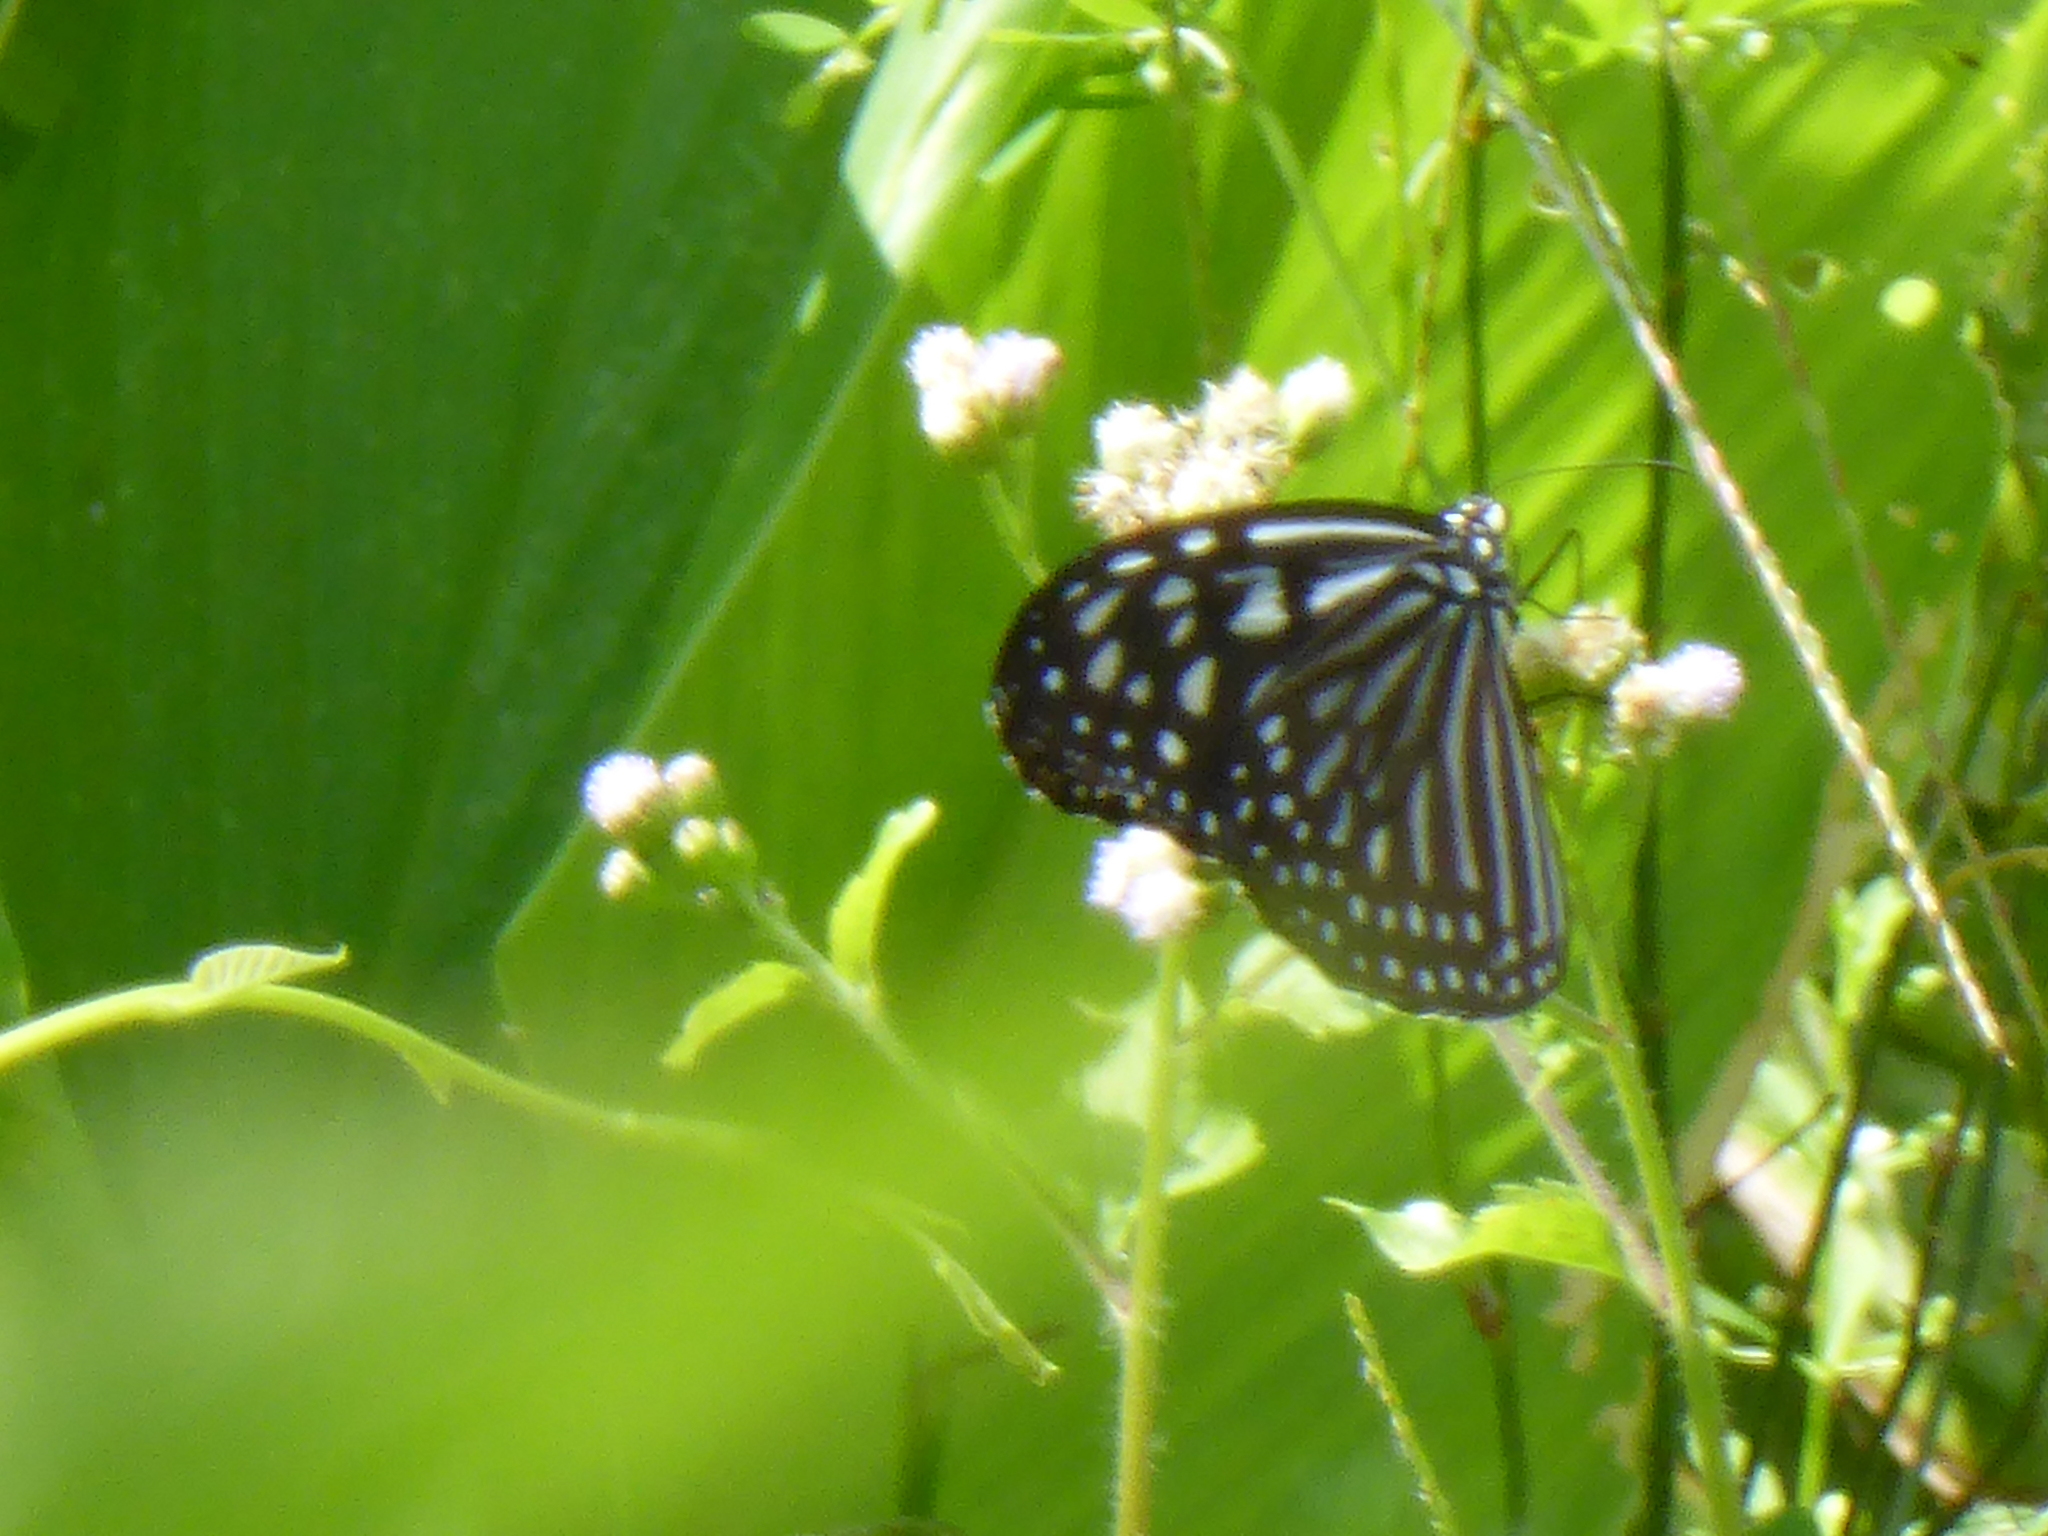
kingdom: Animalia
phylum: Arthropoda
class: Insecta
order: Lepidoptera
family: Nymphalidae
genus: Ideopsis
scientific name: Ideopsis vulgaris
